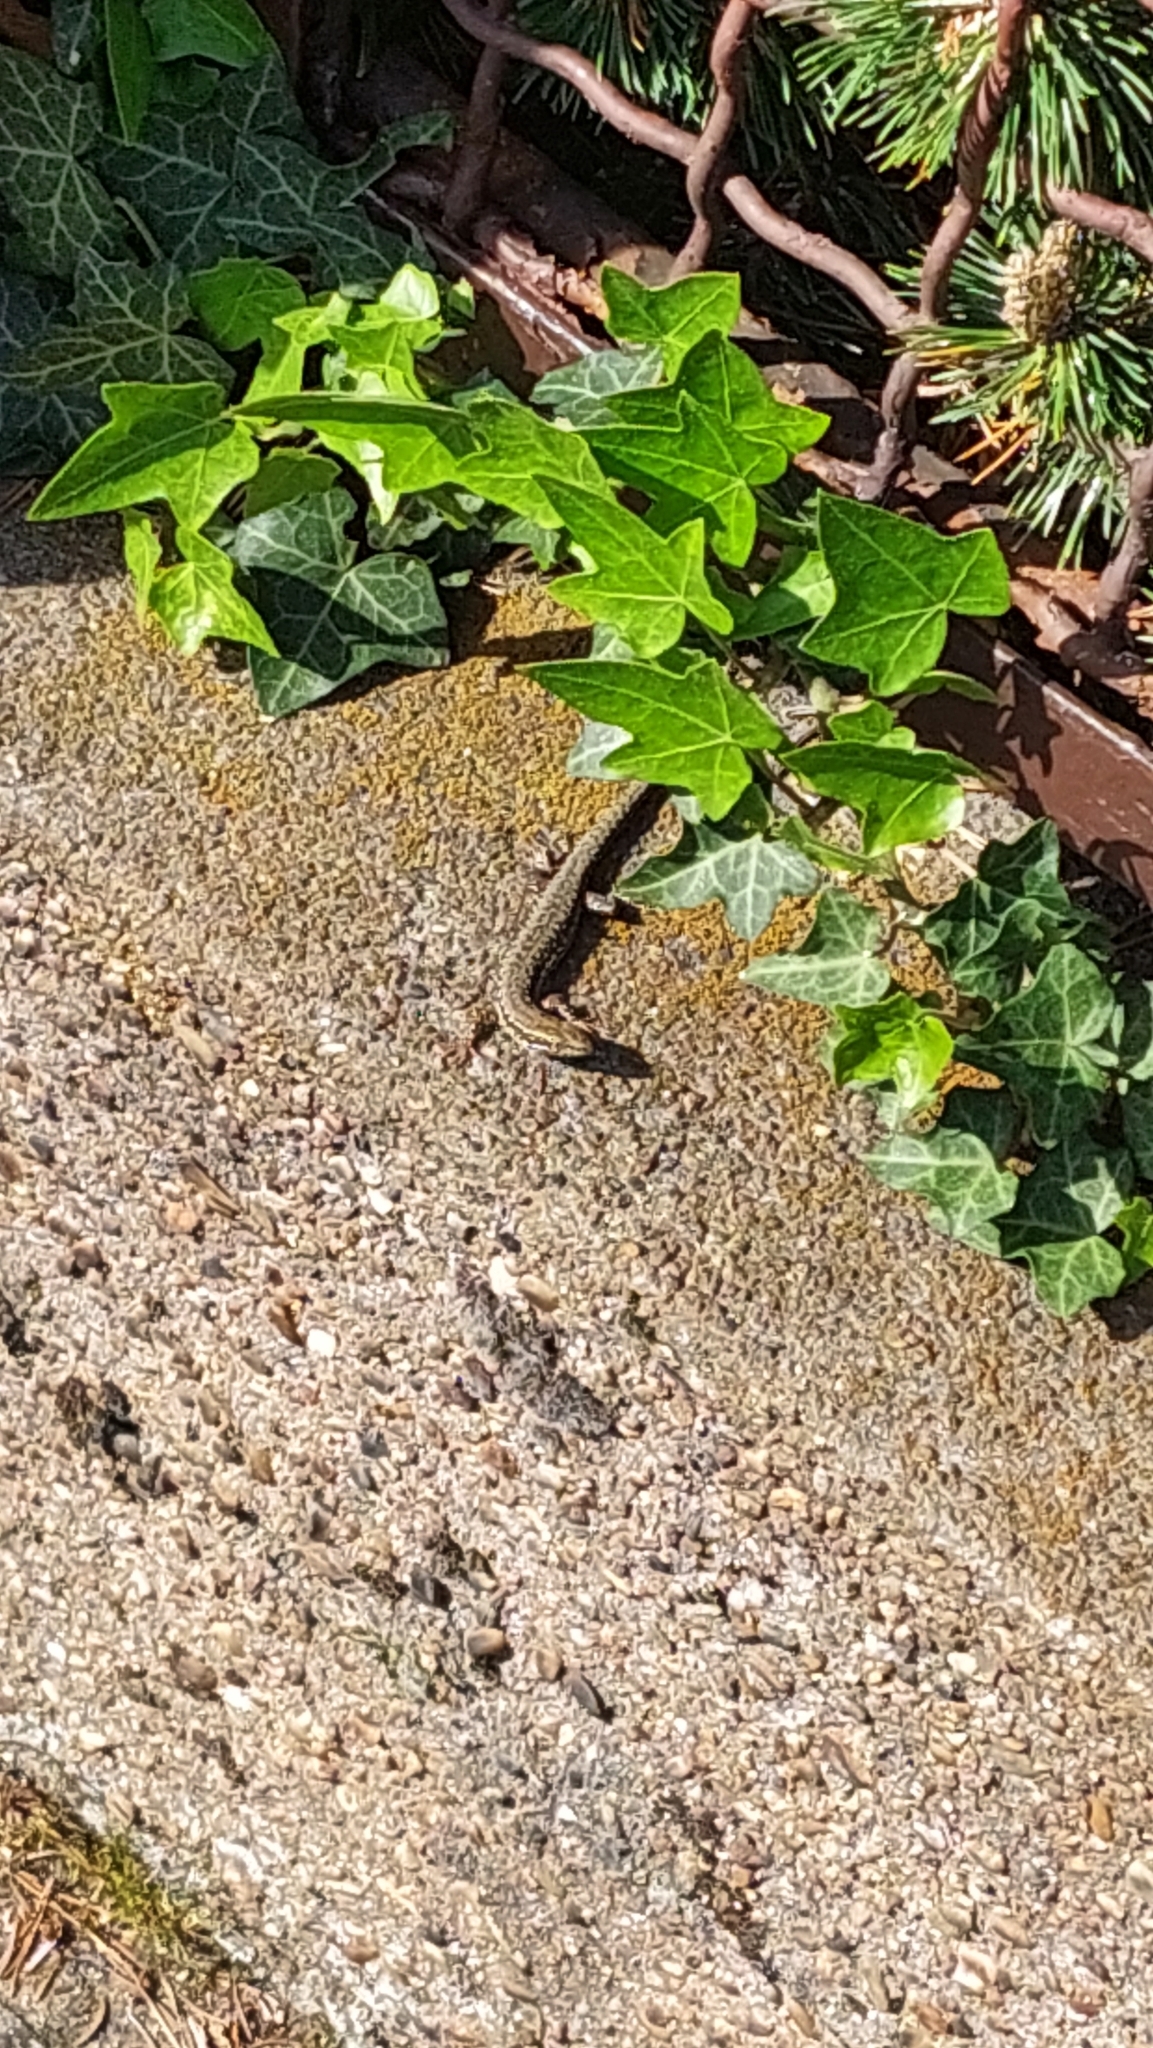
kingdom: Animalia
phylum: Chordata
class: Squamata
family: Lacertidae
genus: Podarcis
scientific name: Podarcis muralis
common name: Common wall lizard
